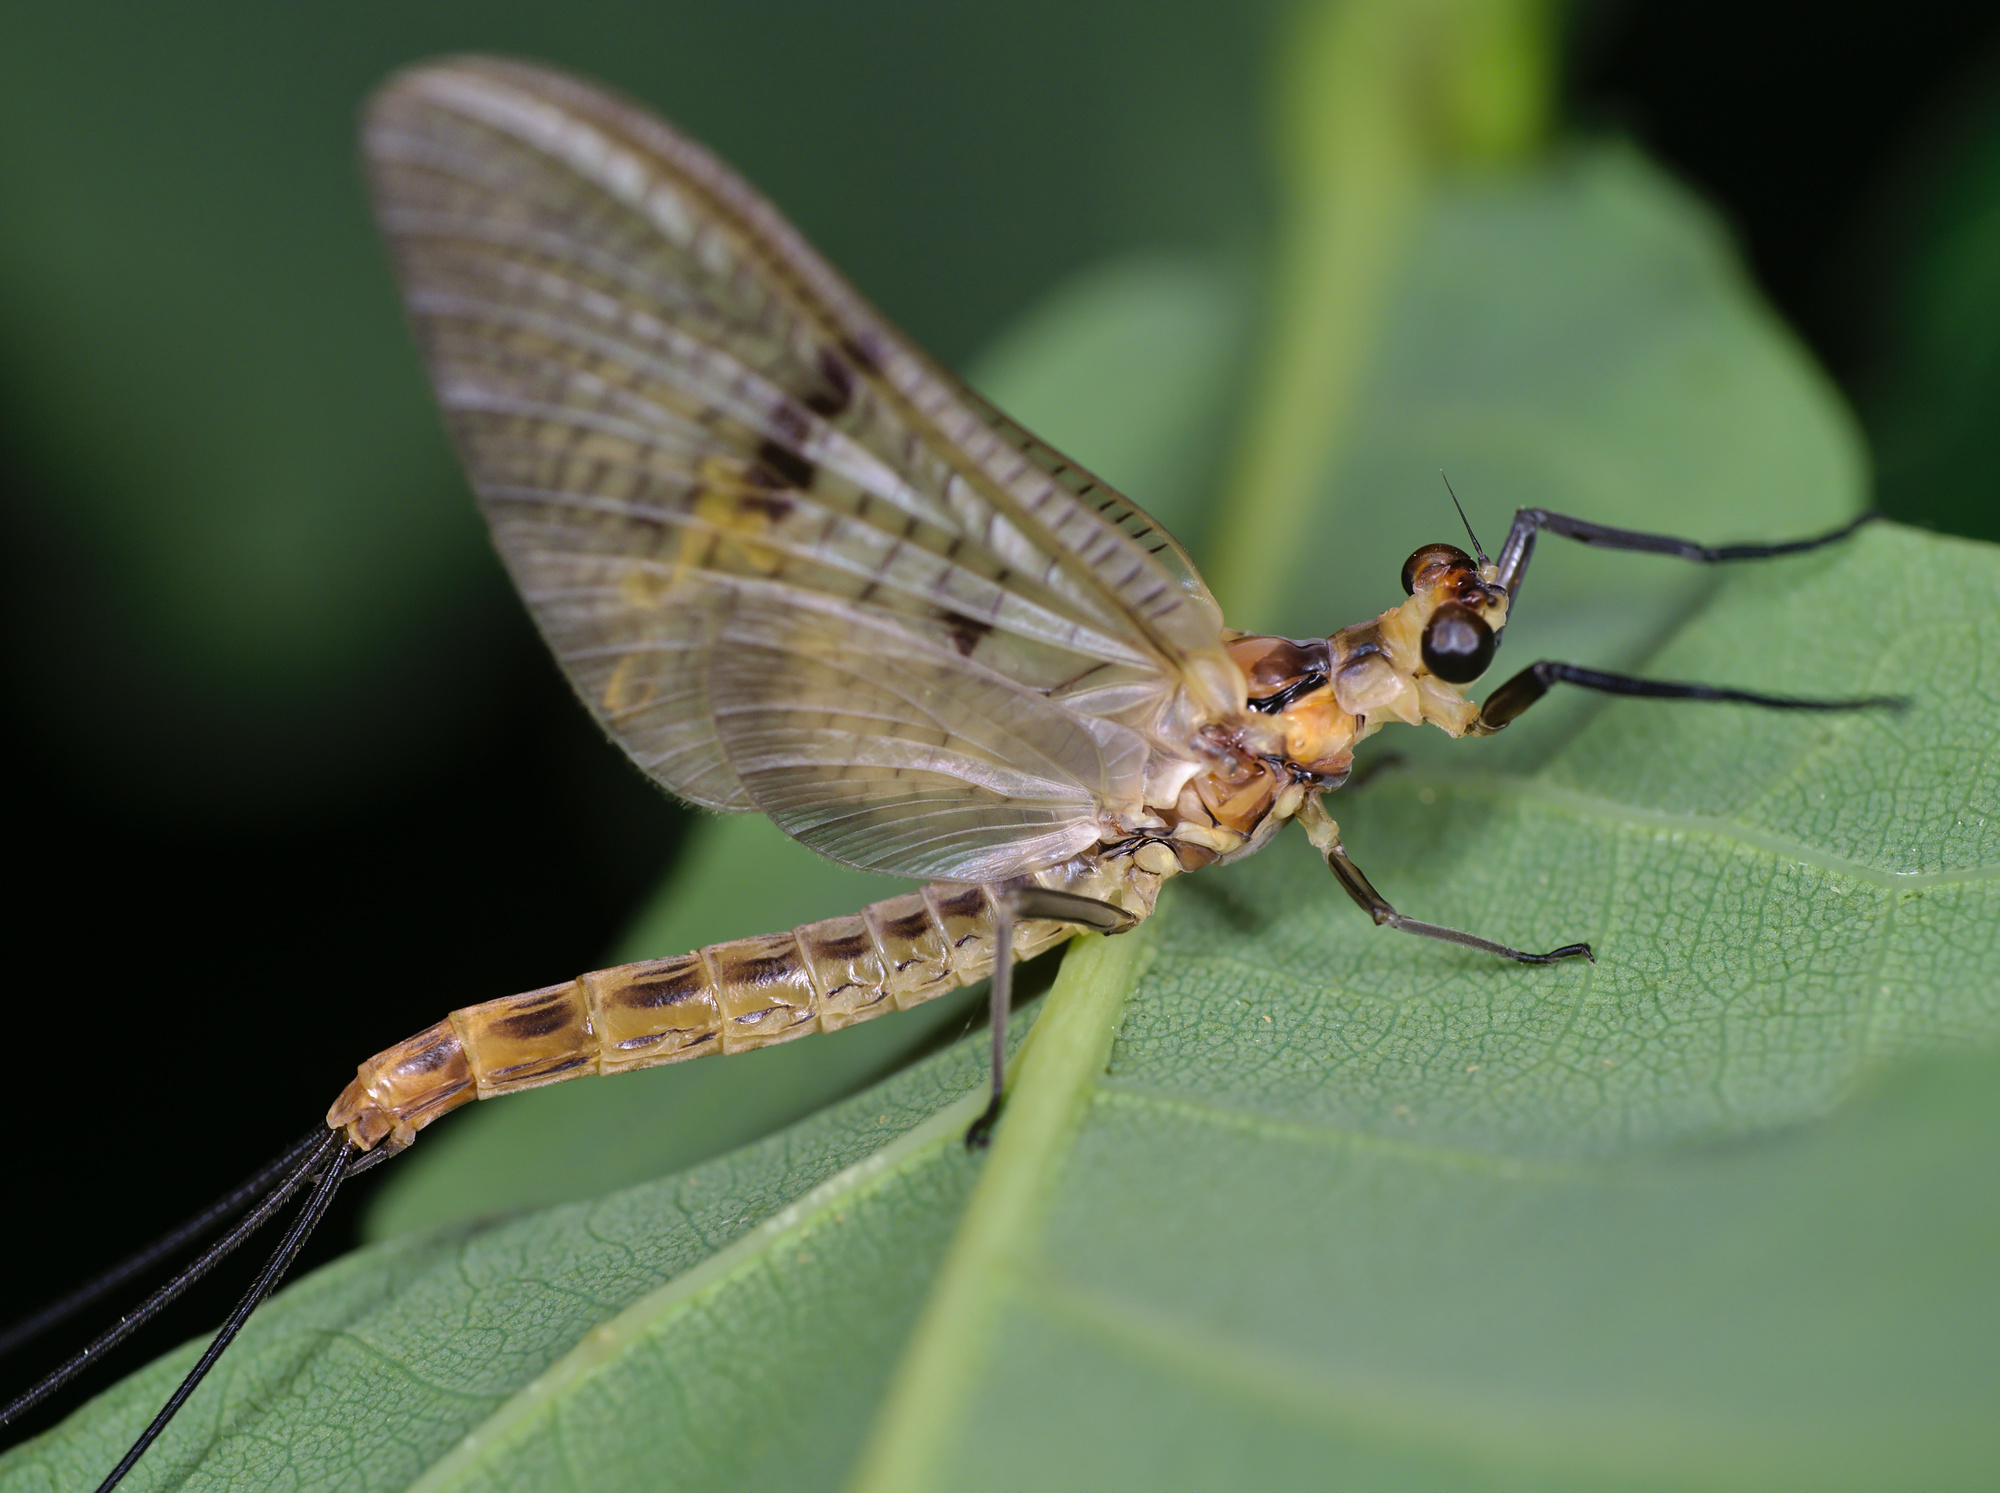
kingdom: Animalia
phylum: Arthropoda
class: Insecta
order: Ephemeroptera
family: Ephemeridae
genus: Ephemera
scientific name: Ephemera lineata
